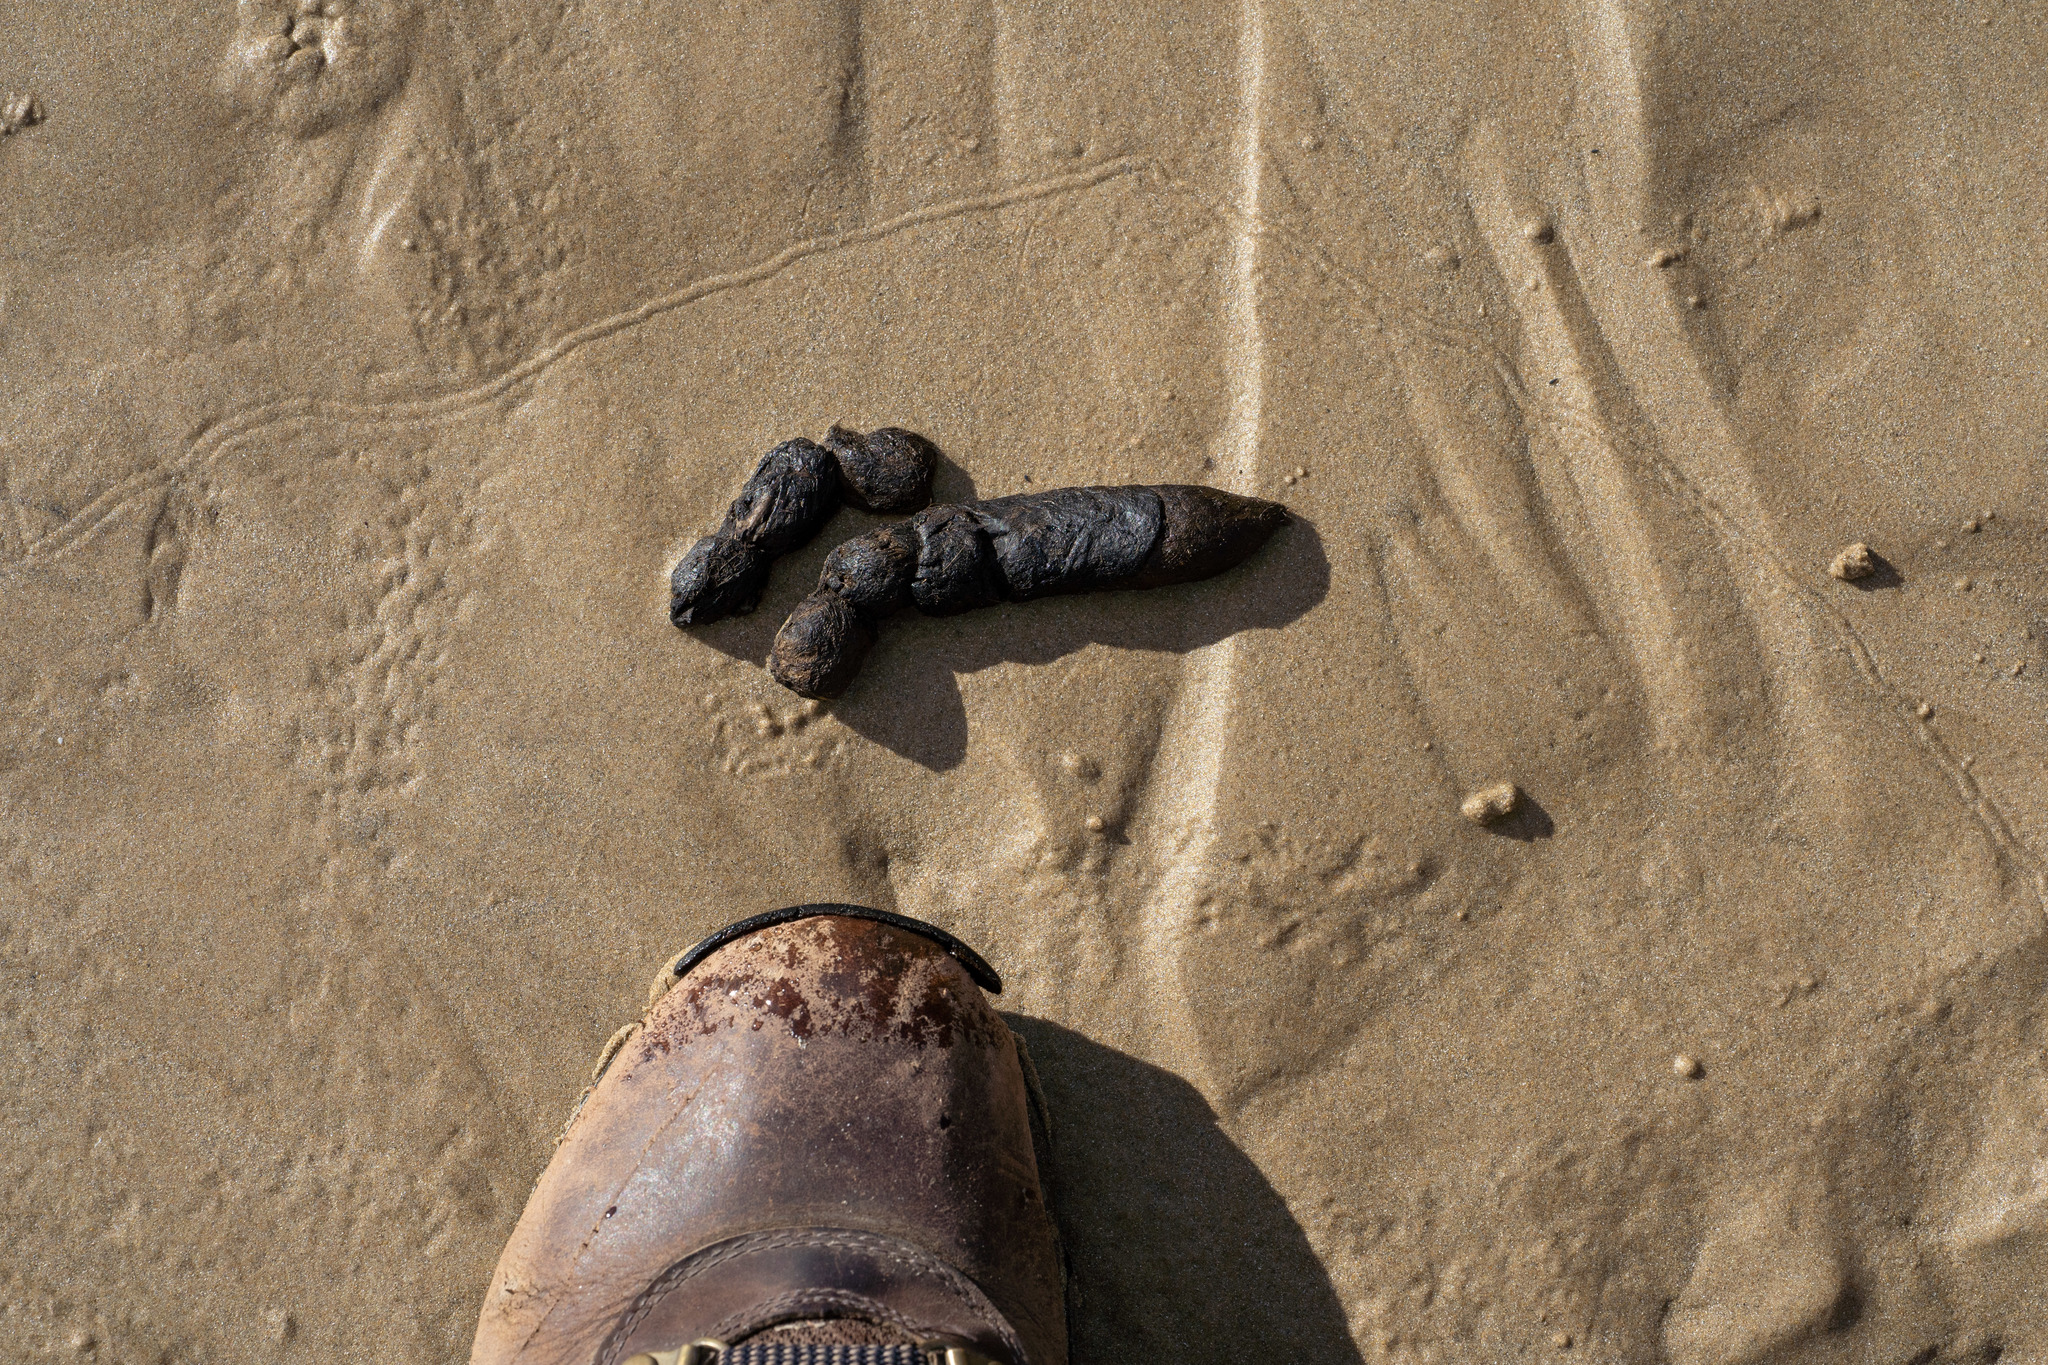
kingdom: Animalia
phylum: Chordata
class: Mammalia
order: Carnivora
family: Canidae
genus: Vulpes
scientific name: Vulpes vulpes
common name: Red fox
